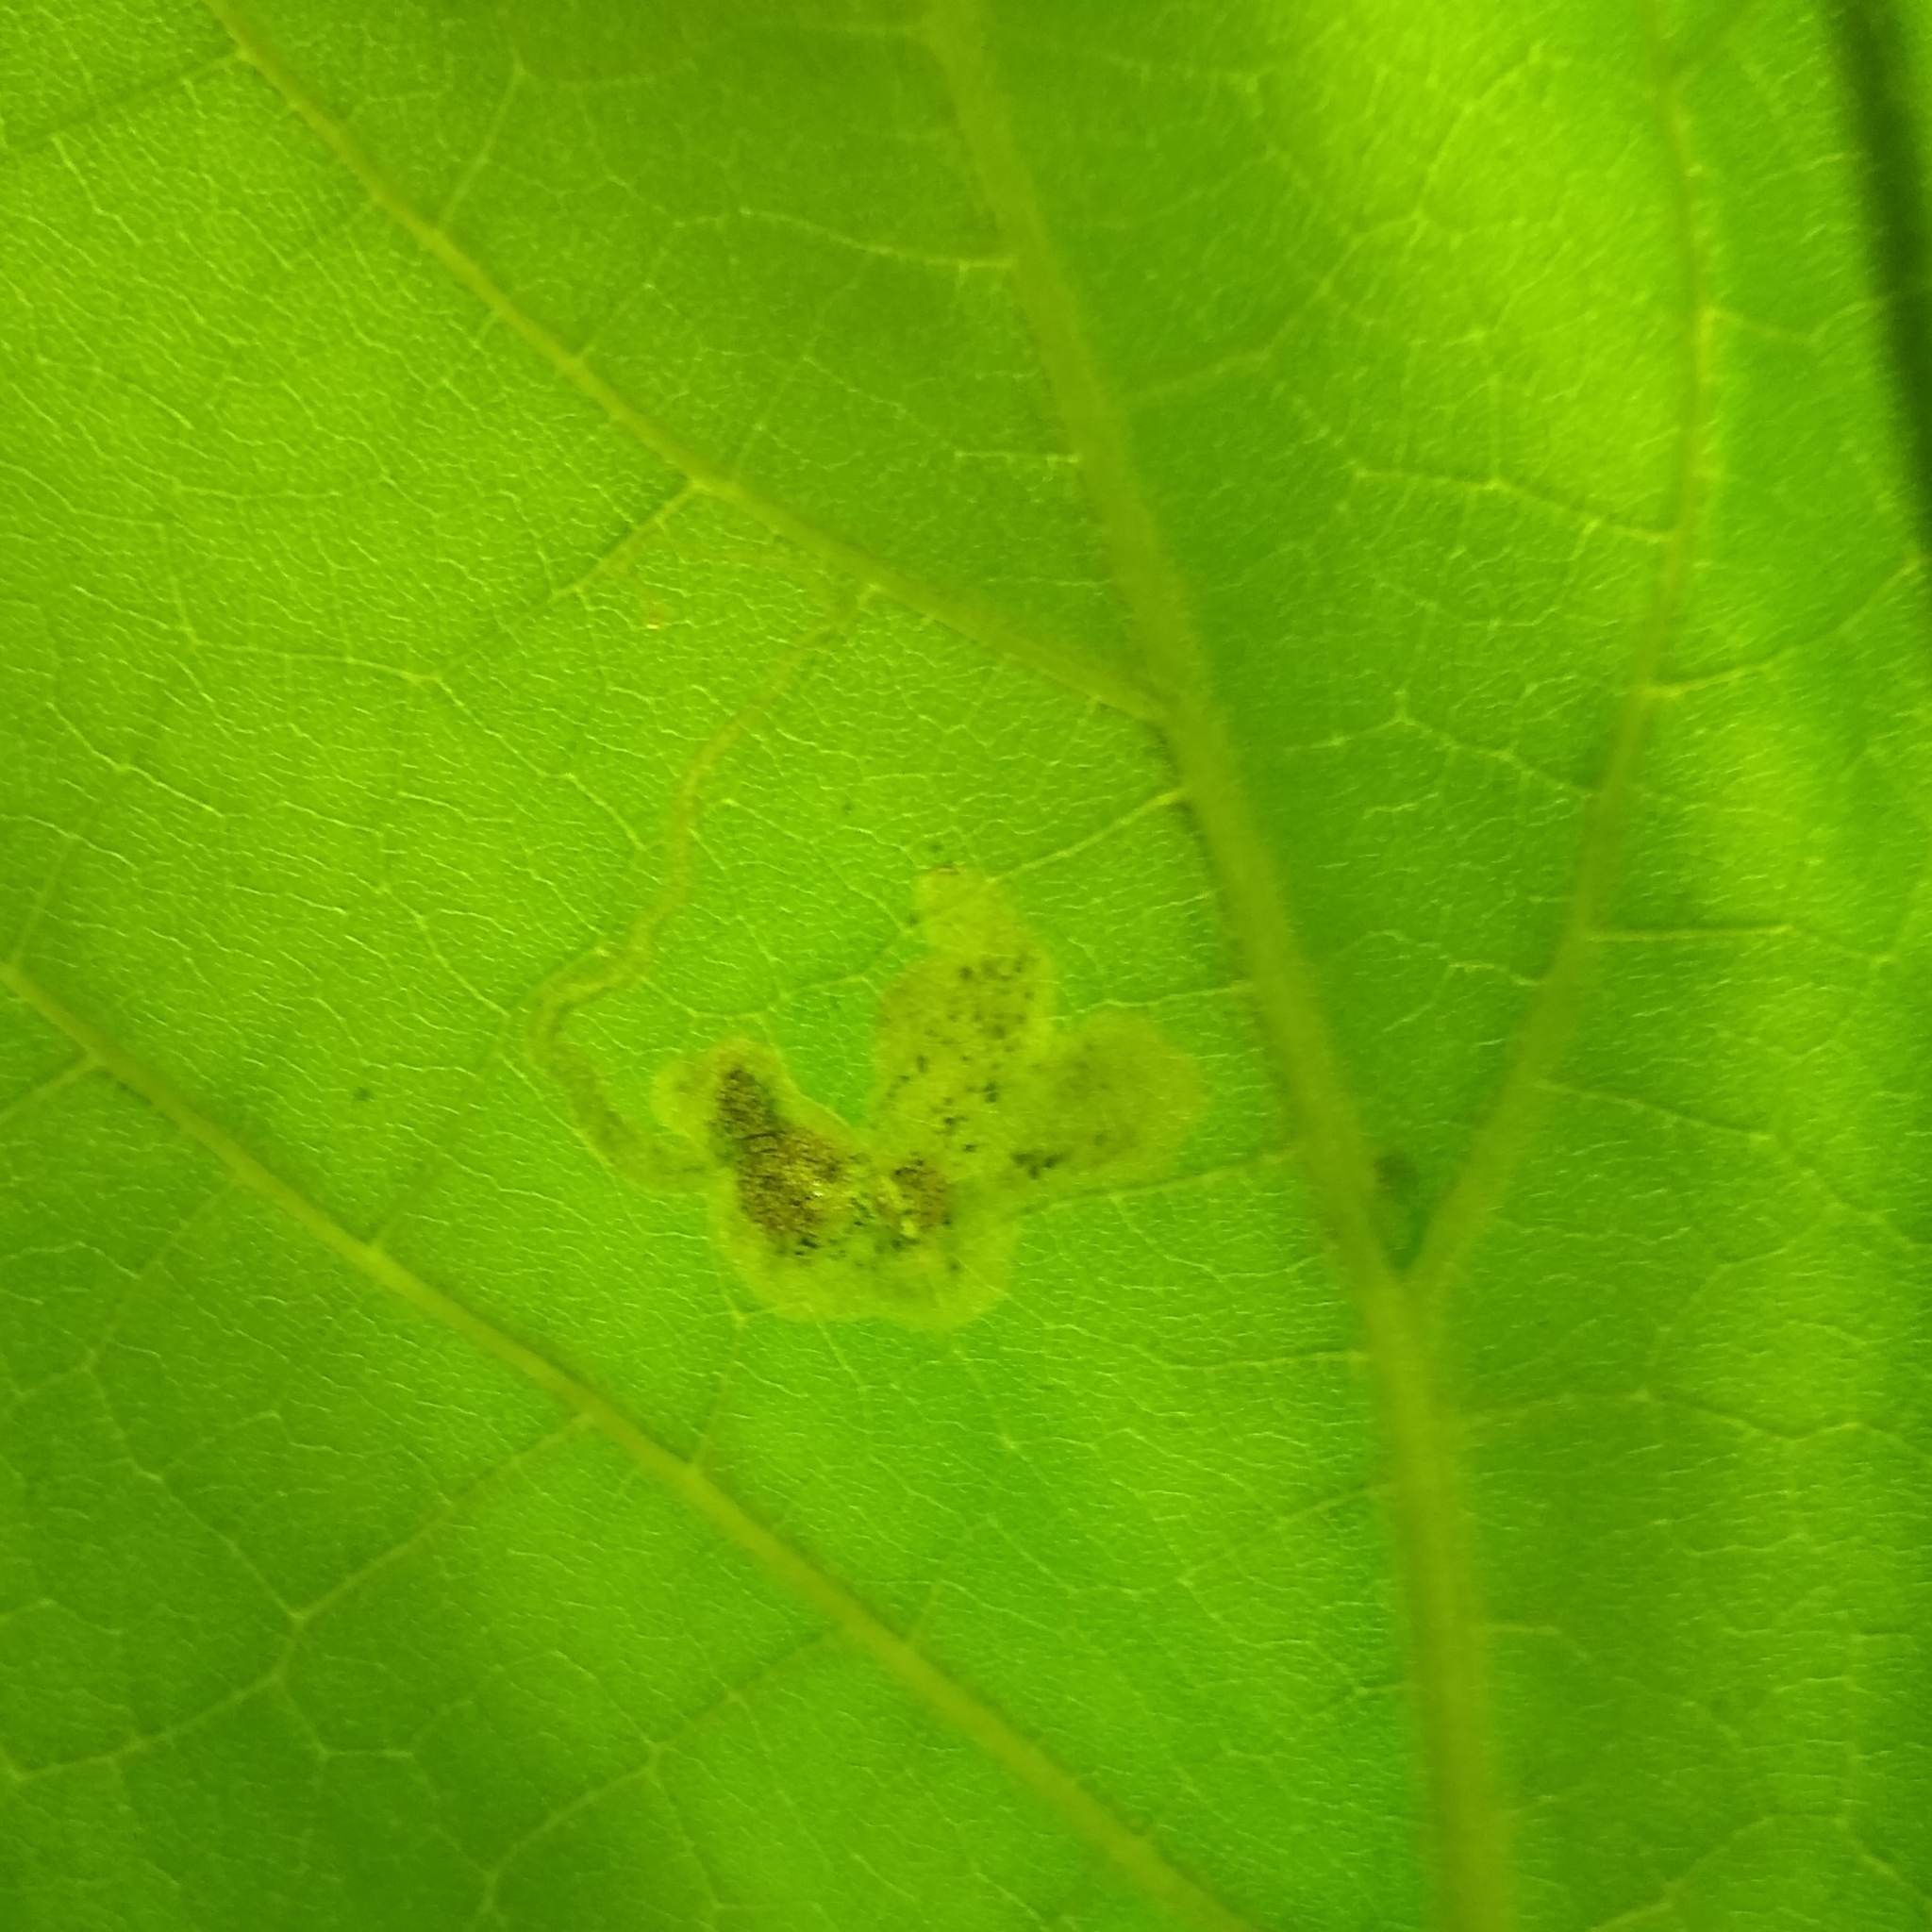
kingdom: Animalia
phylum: Arthropoda
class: Insecta
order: Diptera
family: Agromyzidae
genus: Amauromyza
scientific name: Amauromyza pleuralis
